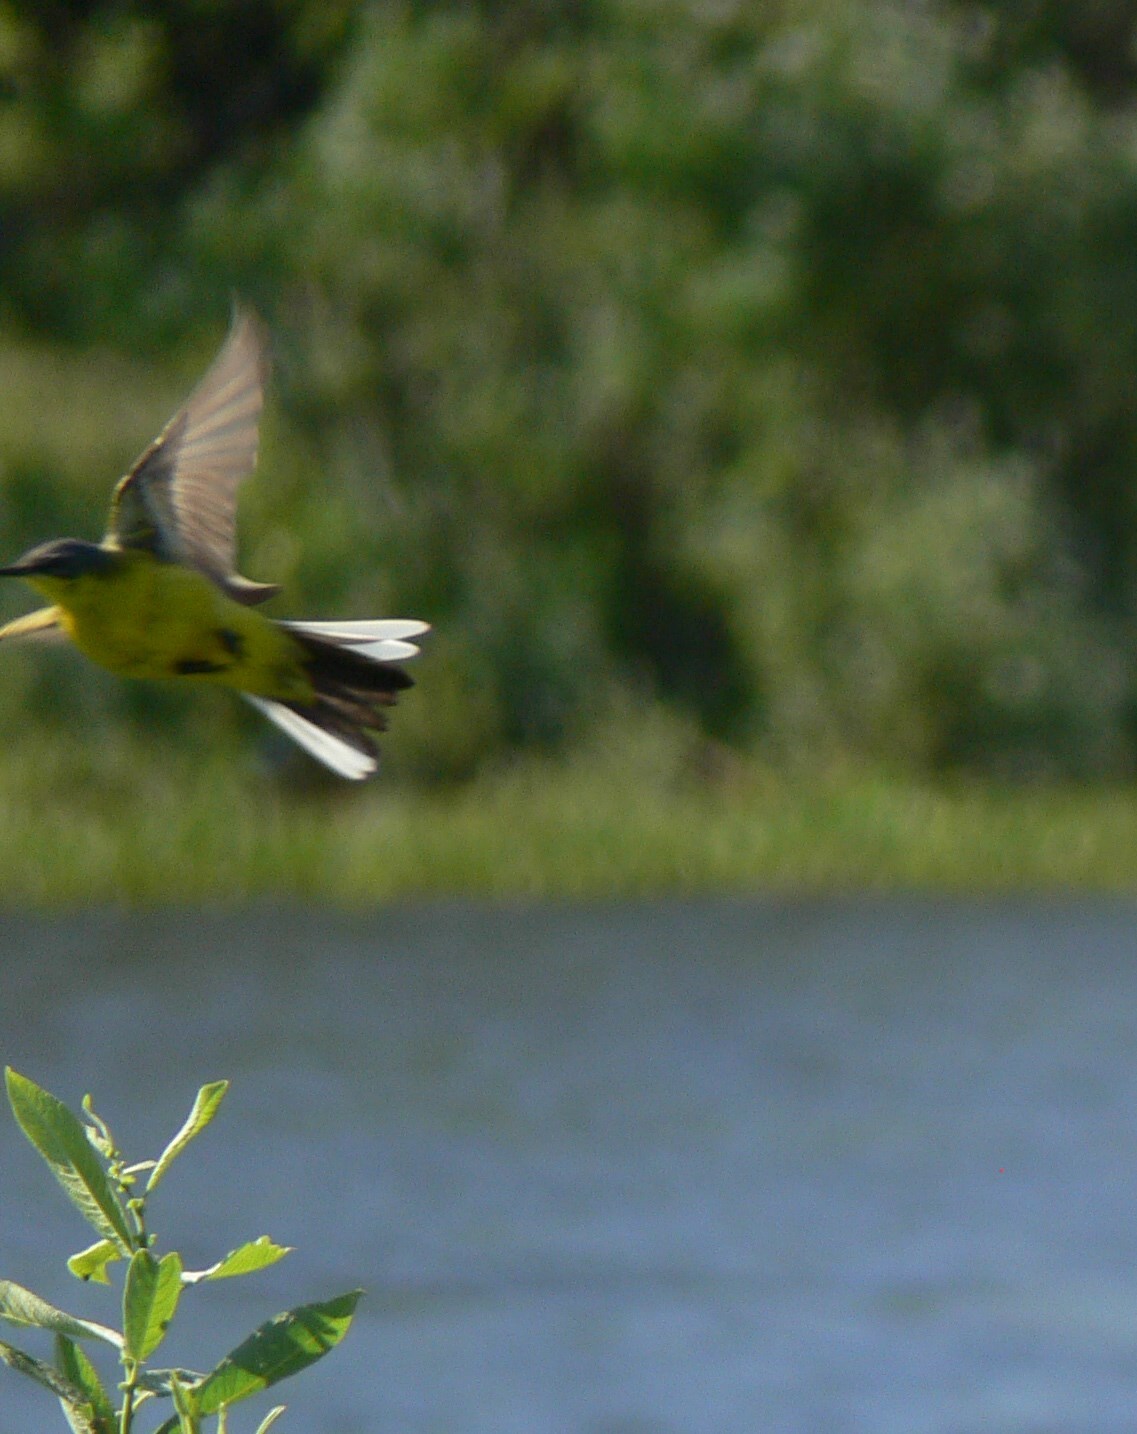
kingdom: Animalia
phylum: Chordata
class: Aves
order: Passeriformes
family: Motacillidae
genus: Motacilla
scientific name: Motacilla flava
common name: Western yellow wagtail
